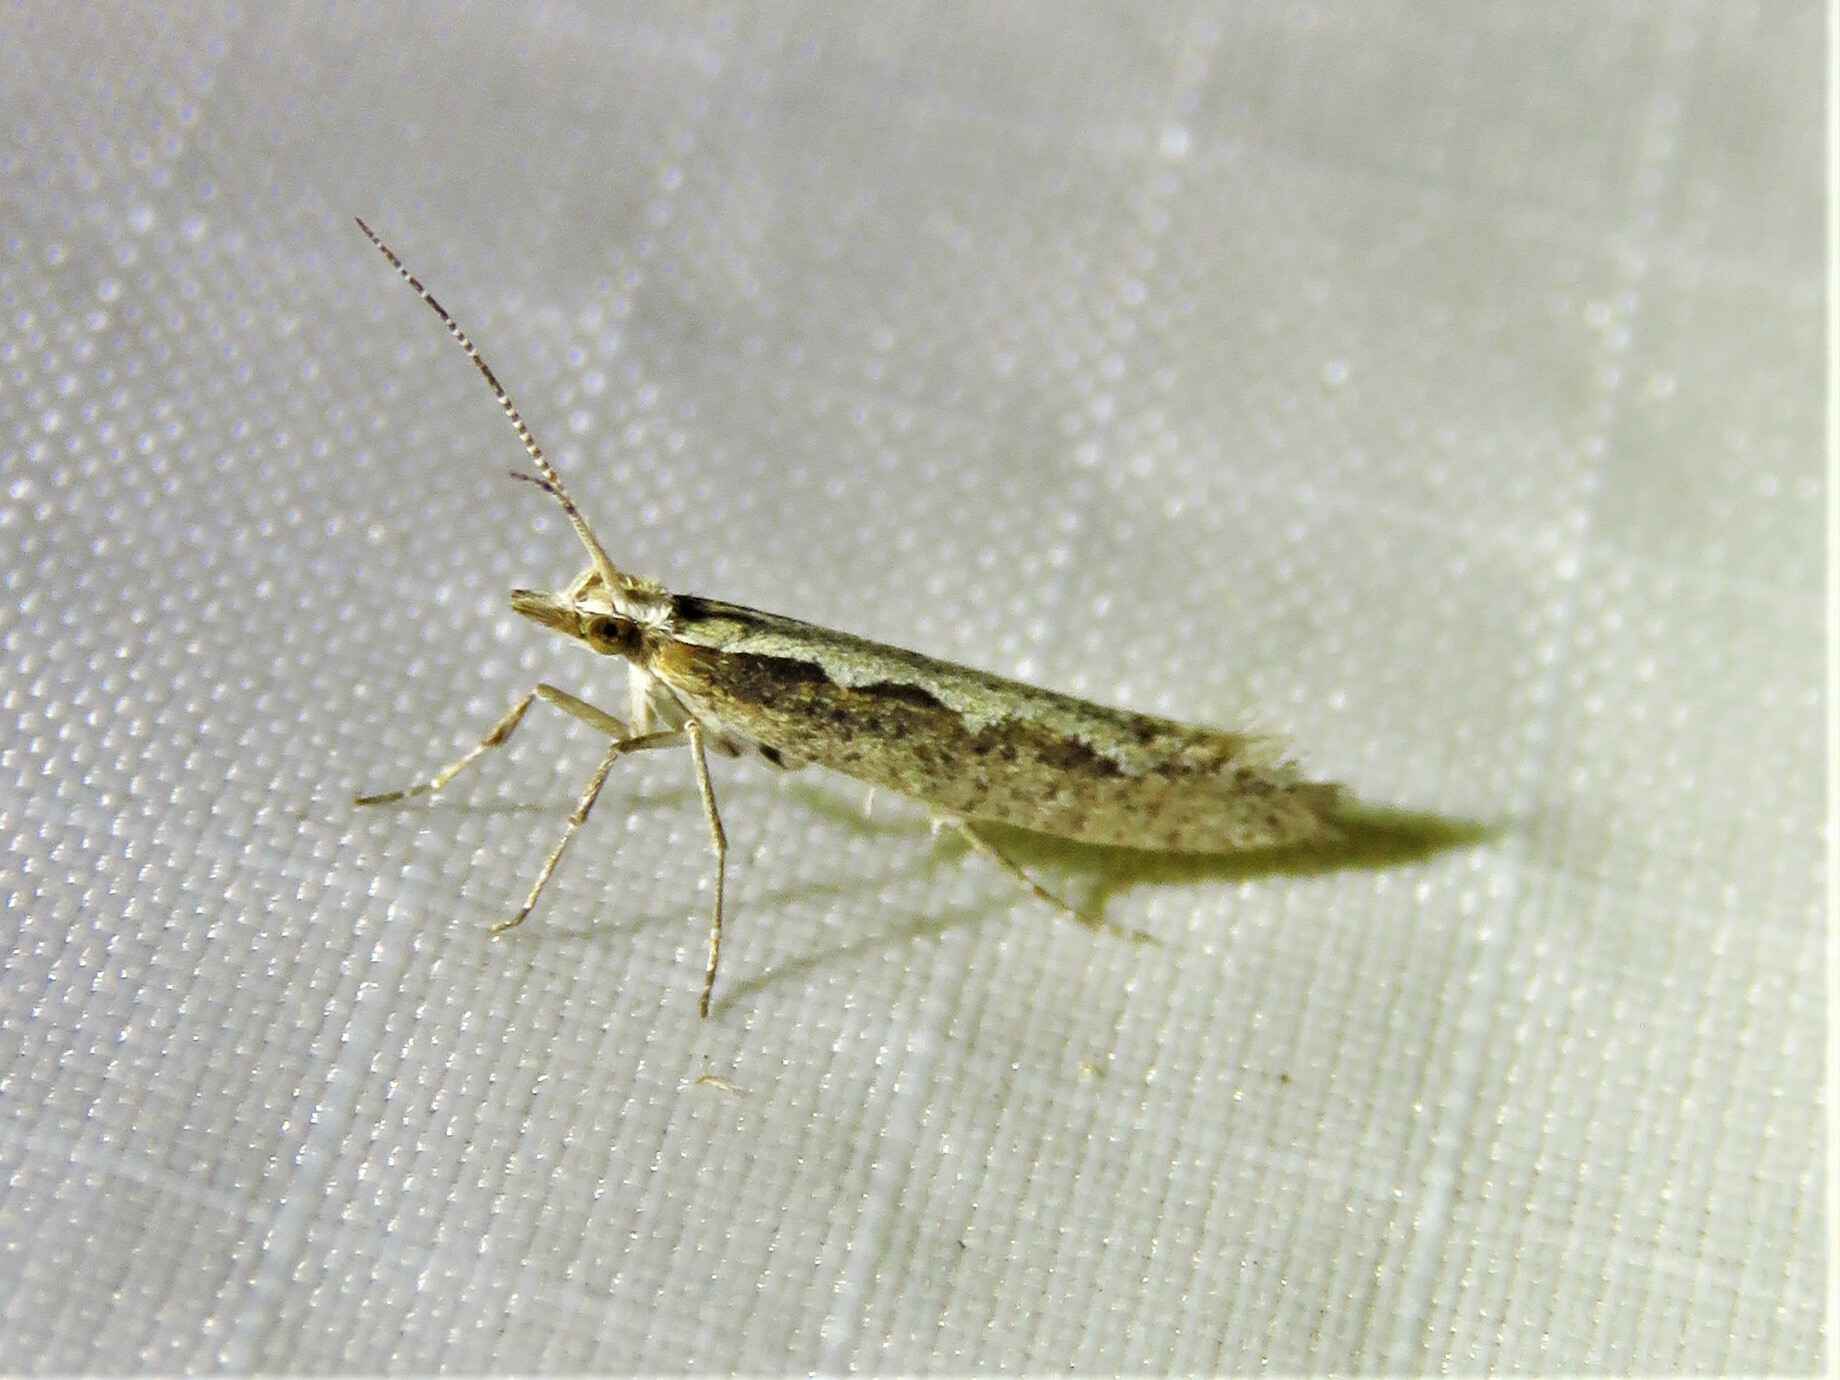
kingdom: Animalia
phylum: Arthropoda
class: Insecta
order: Lepidoptera
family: Plutellidae
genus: Plutella
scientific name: Plutella xylostella
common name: Diamond-back moth
